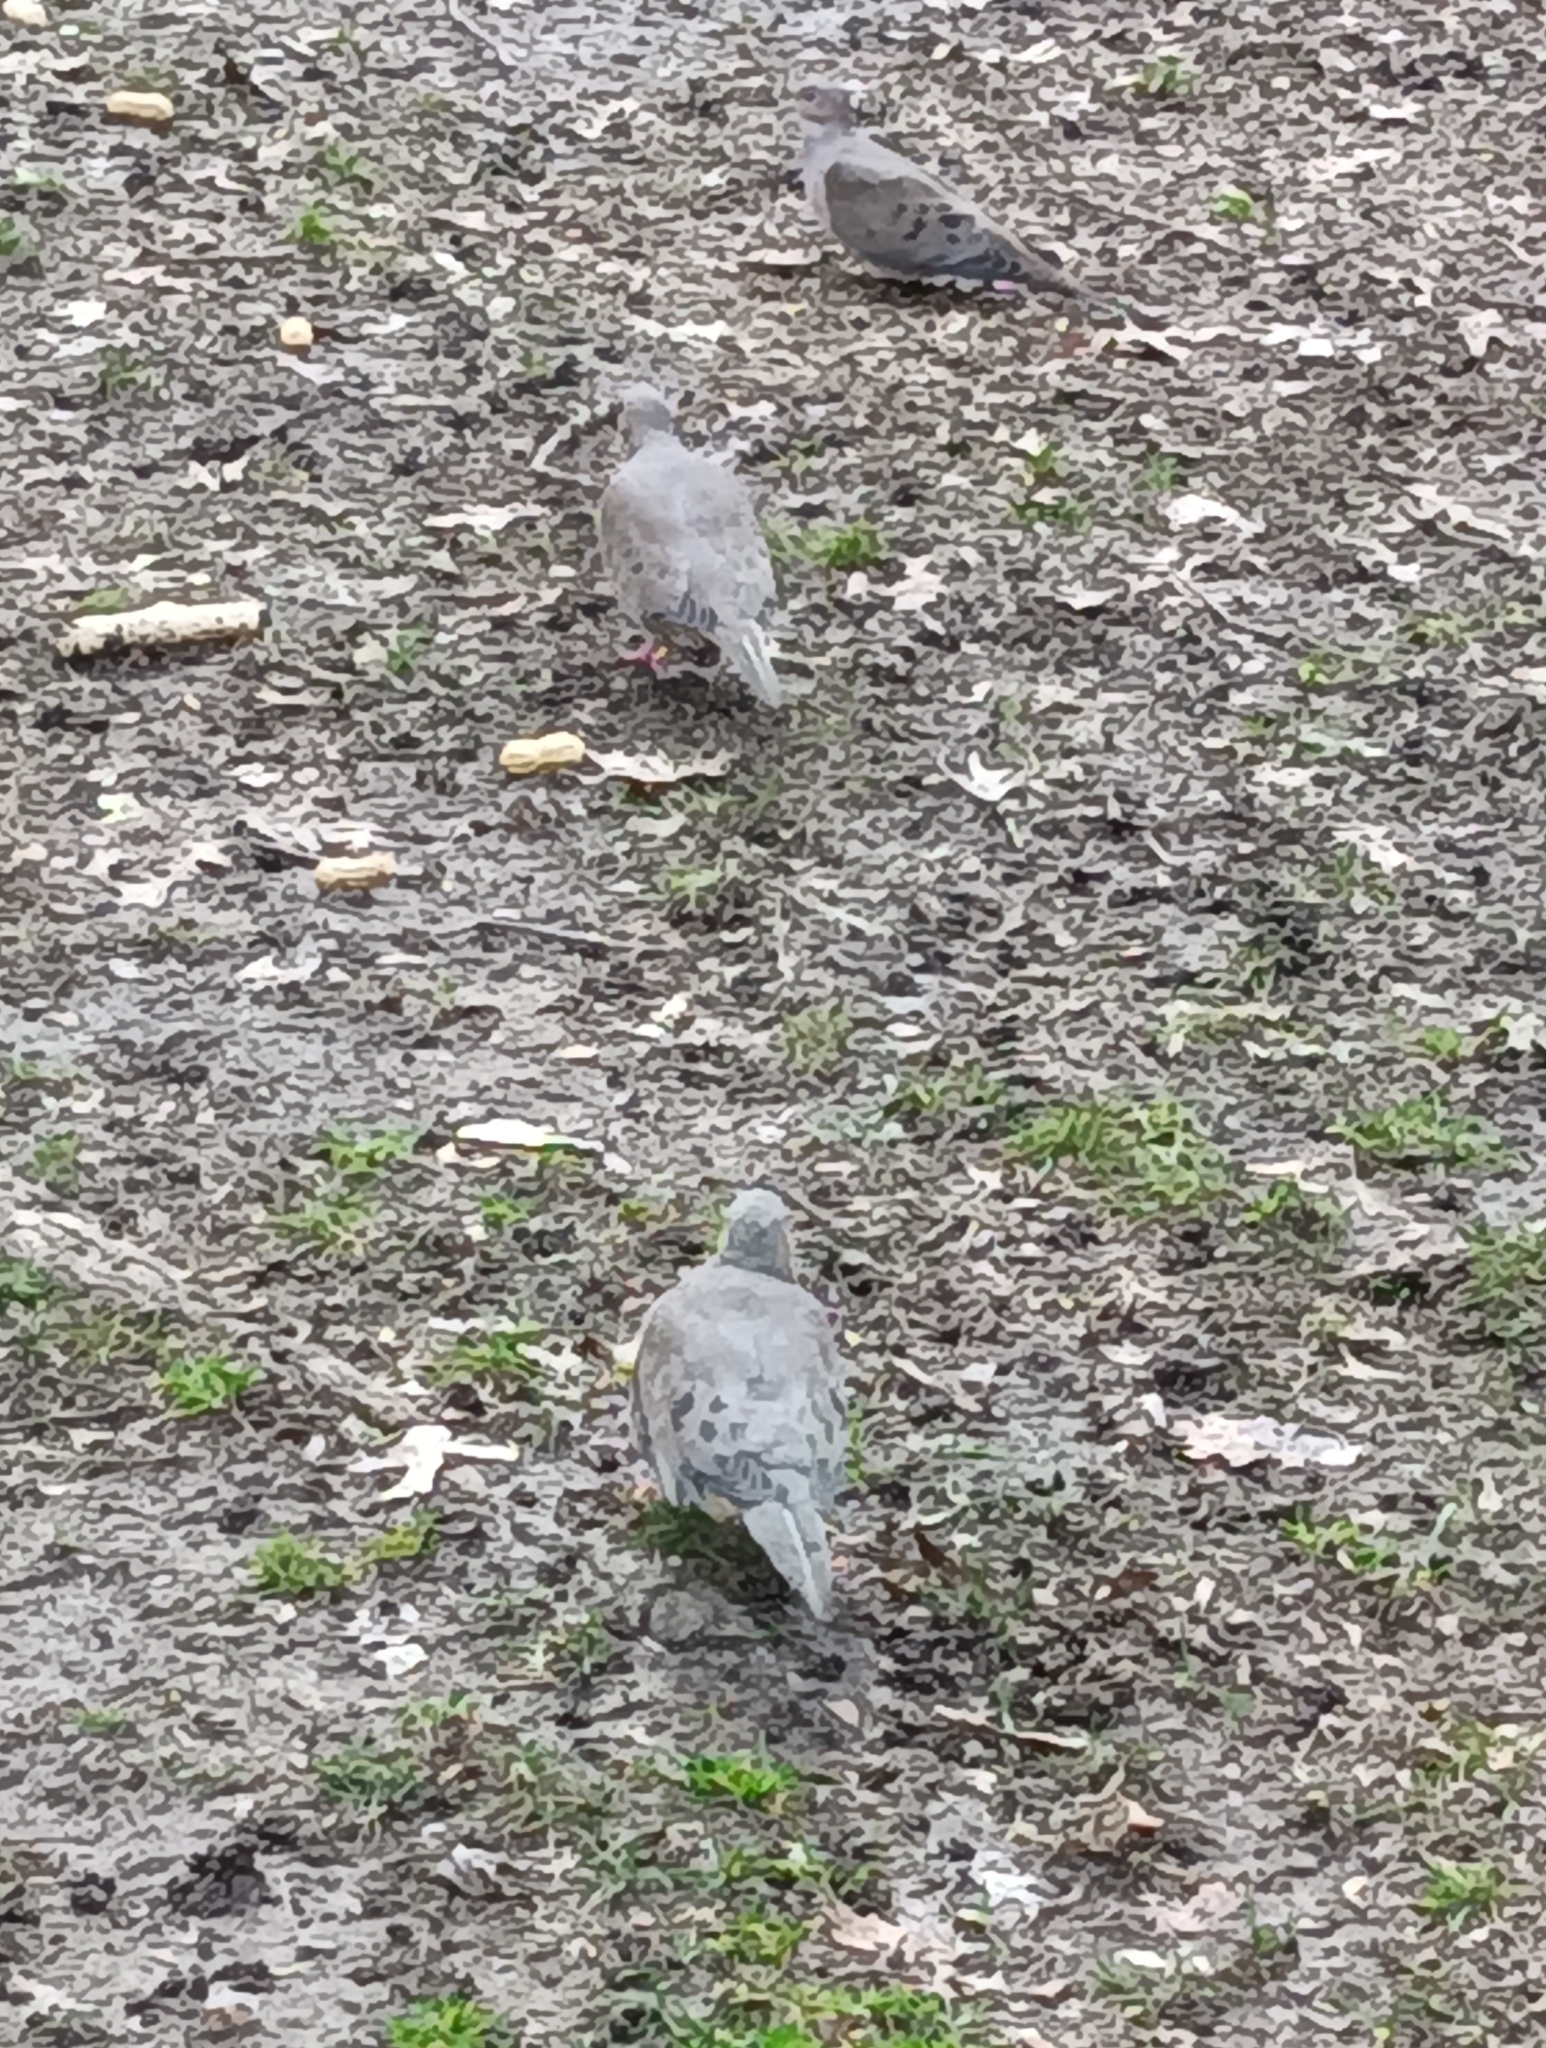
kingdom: Animalia
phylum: Chordata
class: Aves
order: Columbiformes
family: Columbidae
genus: Zenaida
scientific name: Zenaida macroura
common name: Mourning dove
